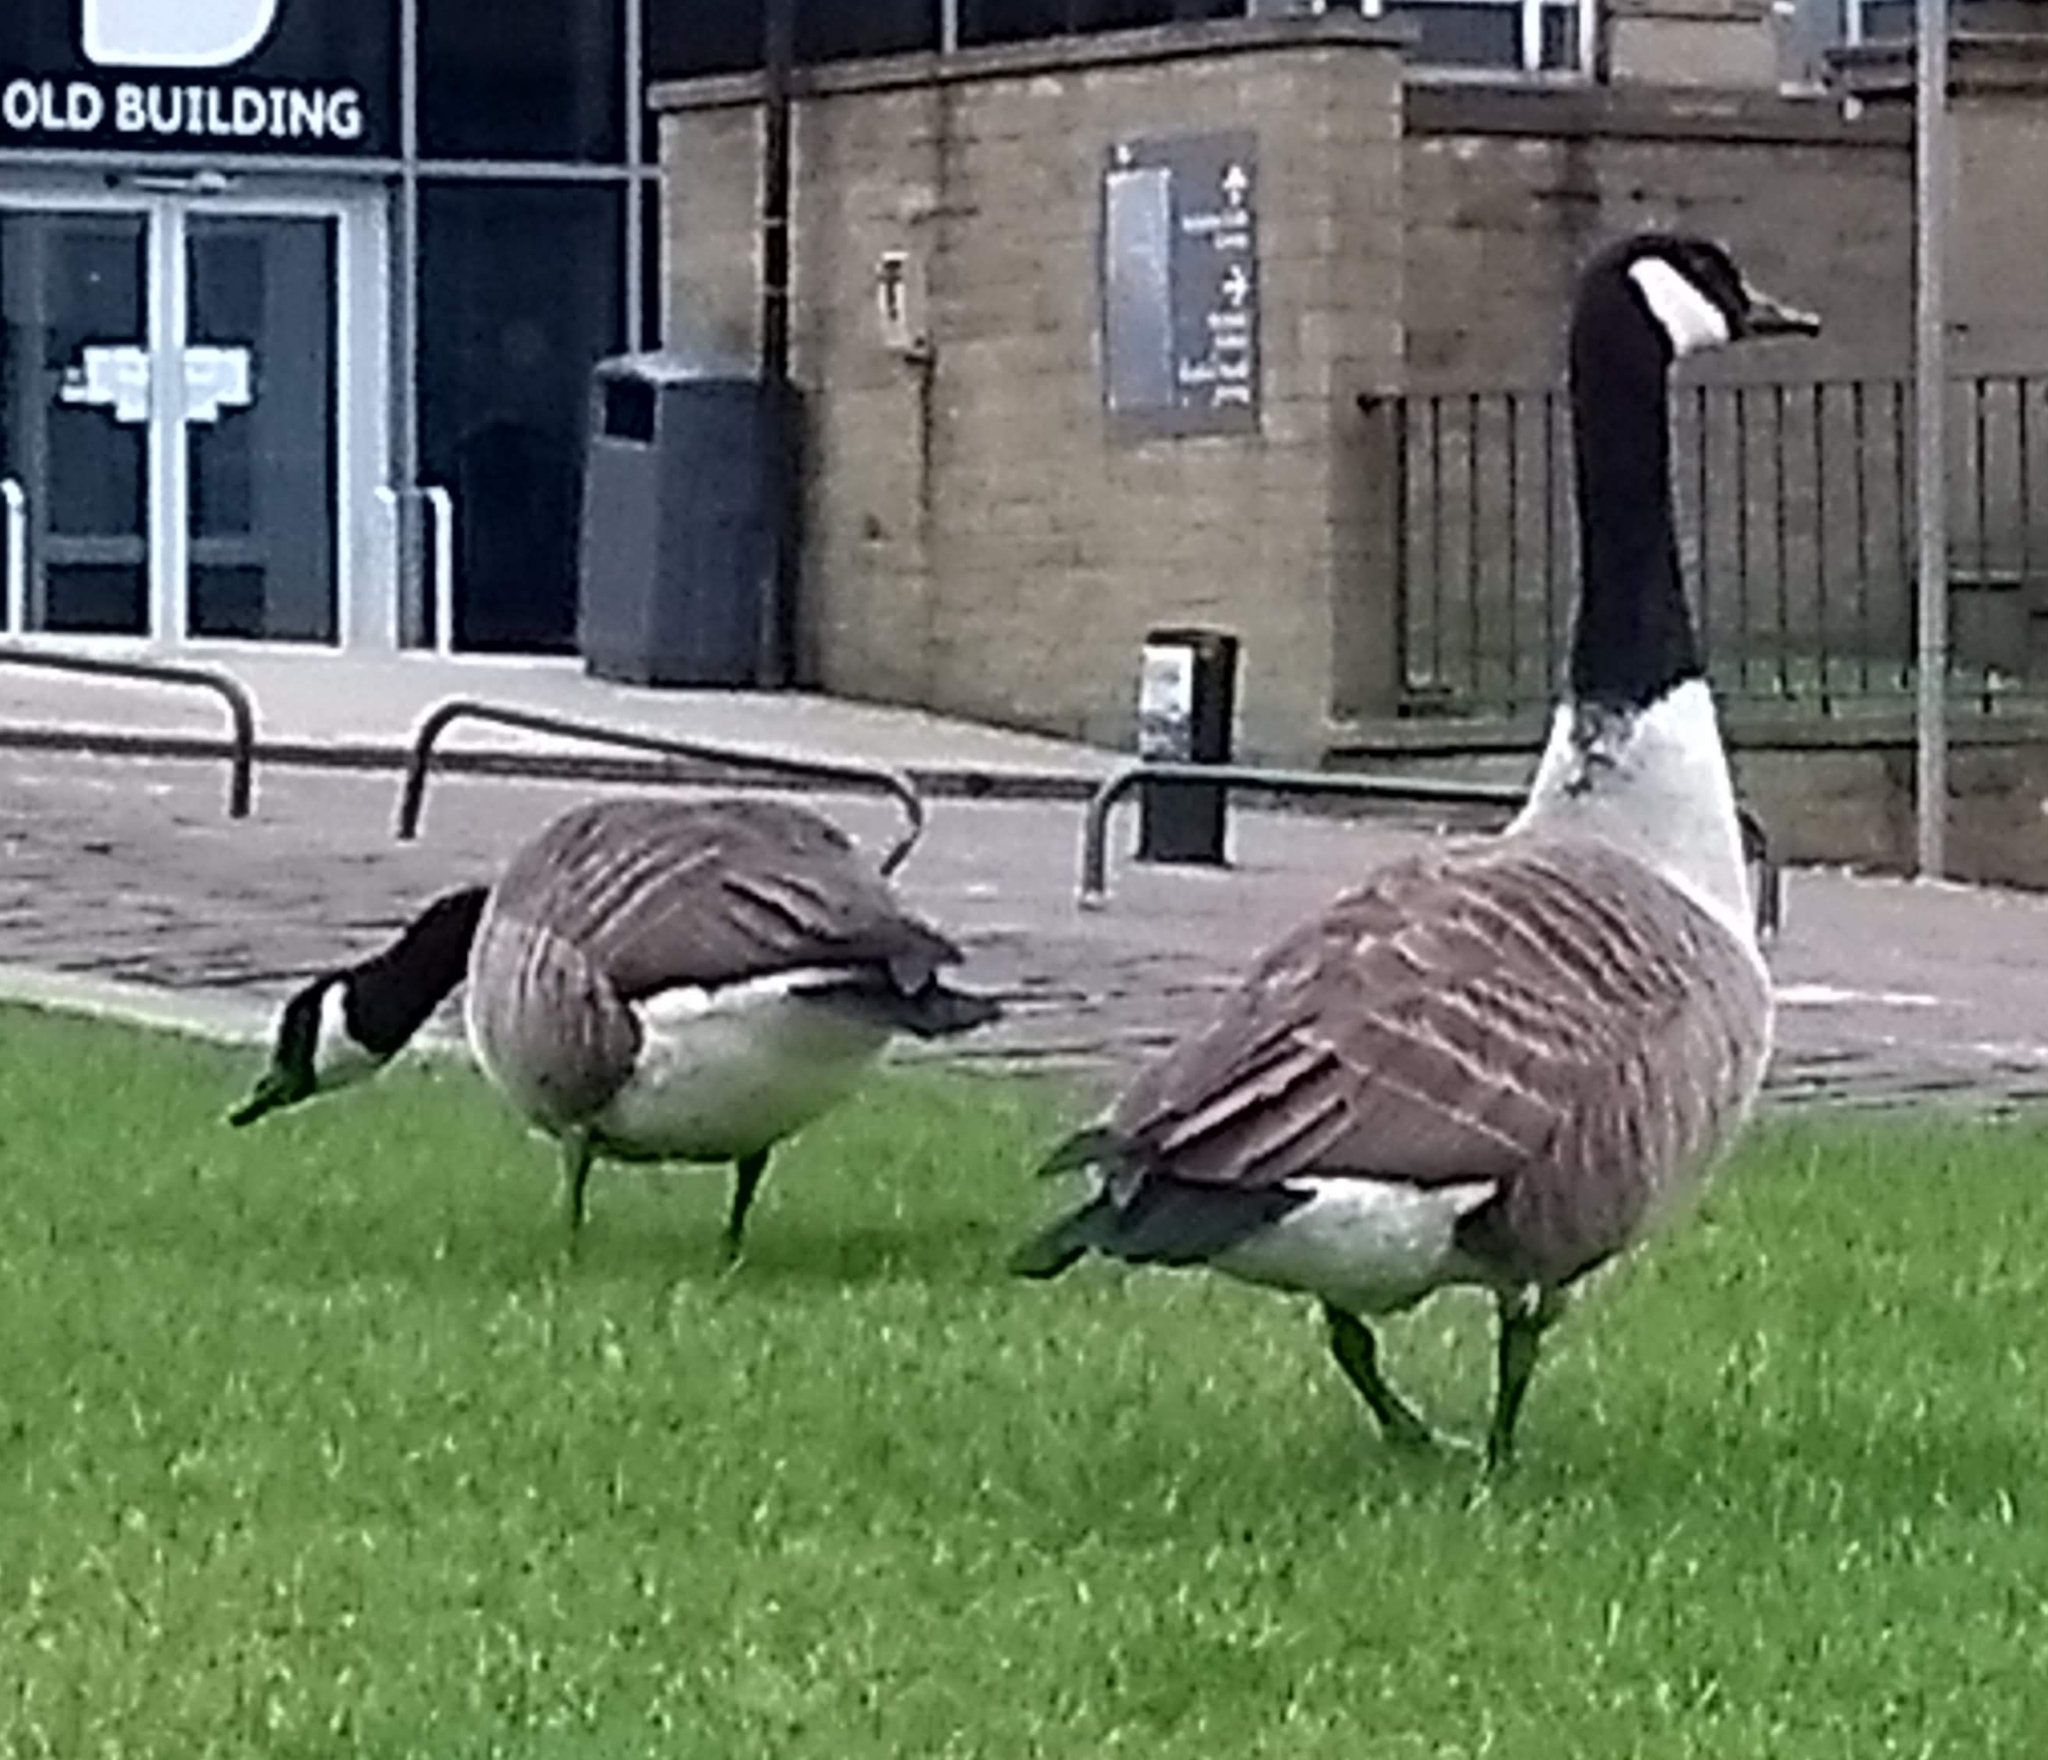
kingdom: Animalia
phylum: Chordata
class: Aves
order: Anseriformes
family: Anatidae
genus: Branta
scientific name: Branta canadensis
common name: Canada goose
